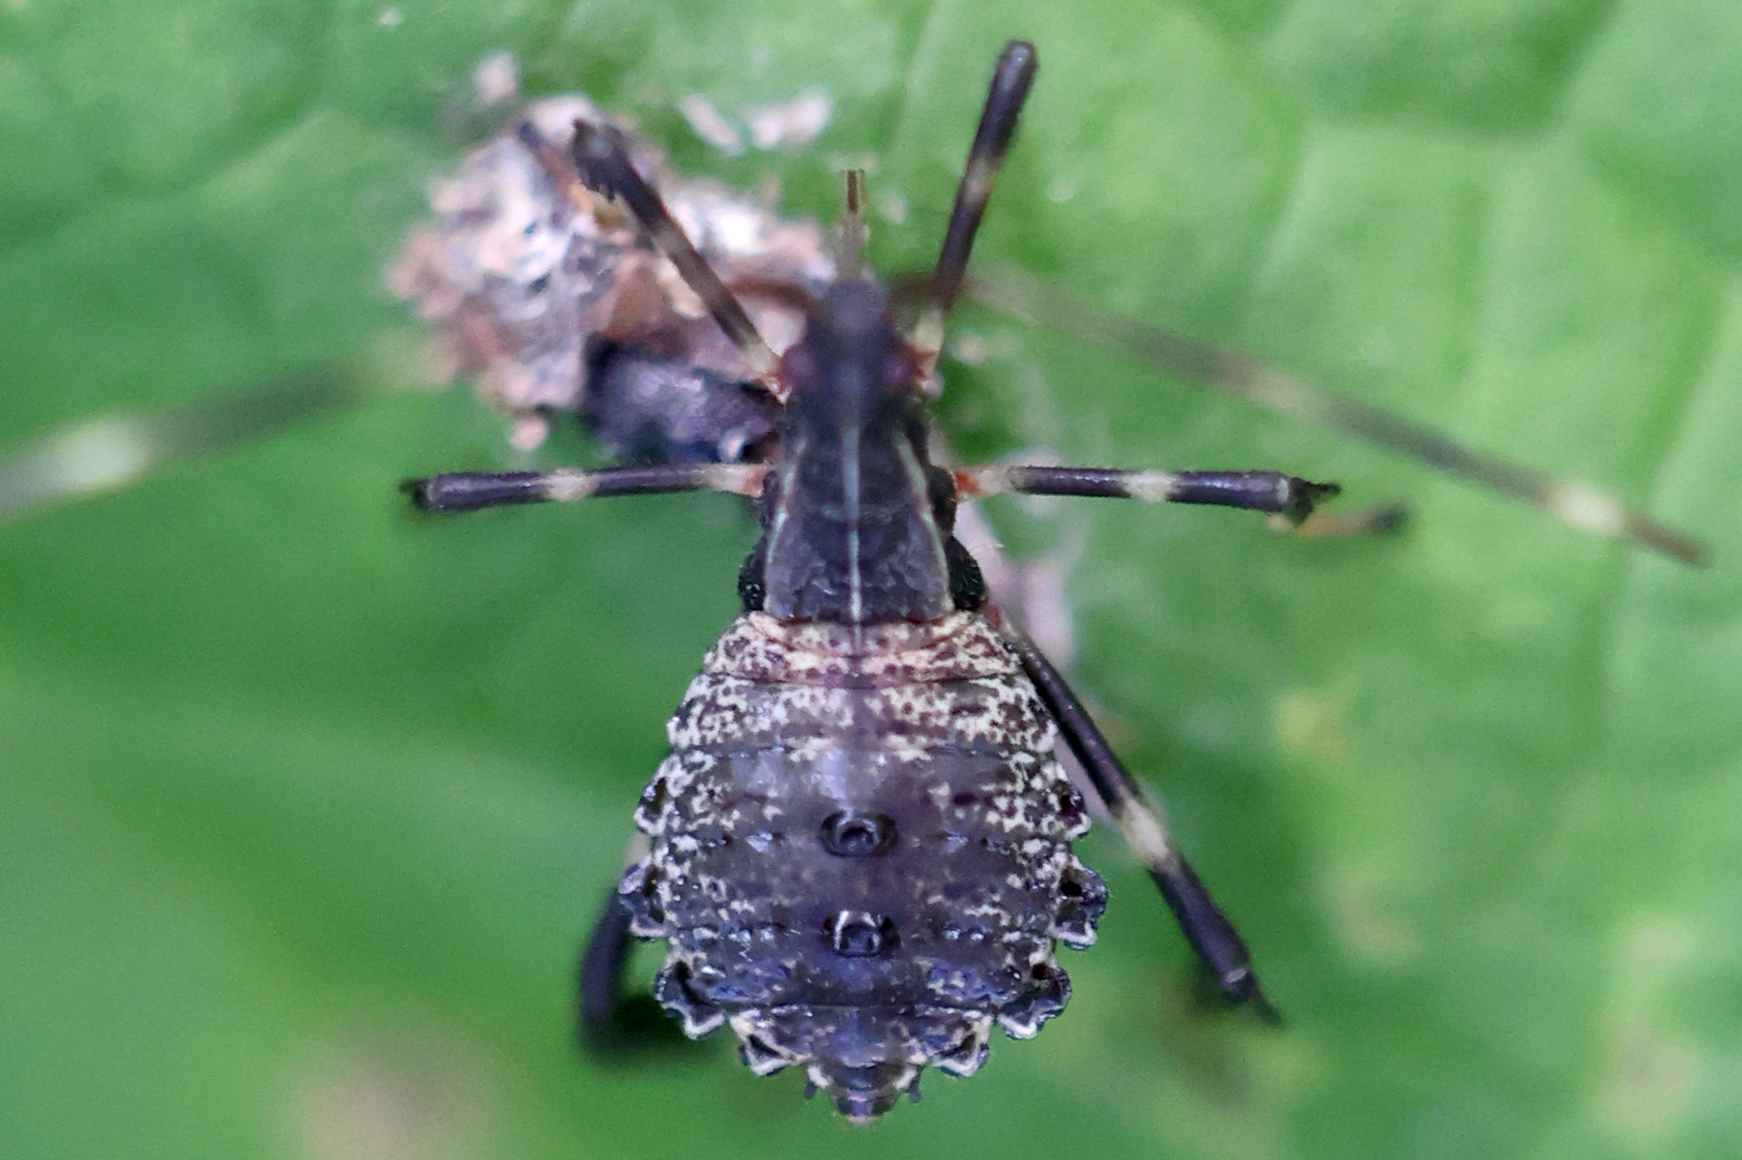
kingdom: Animalia
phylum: Arthropoda
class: Insecta
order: Hemiptera
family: Coreidae
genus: Acanthocephala
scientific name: Acanthocephala terminalis
